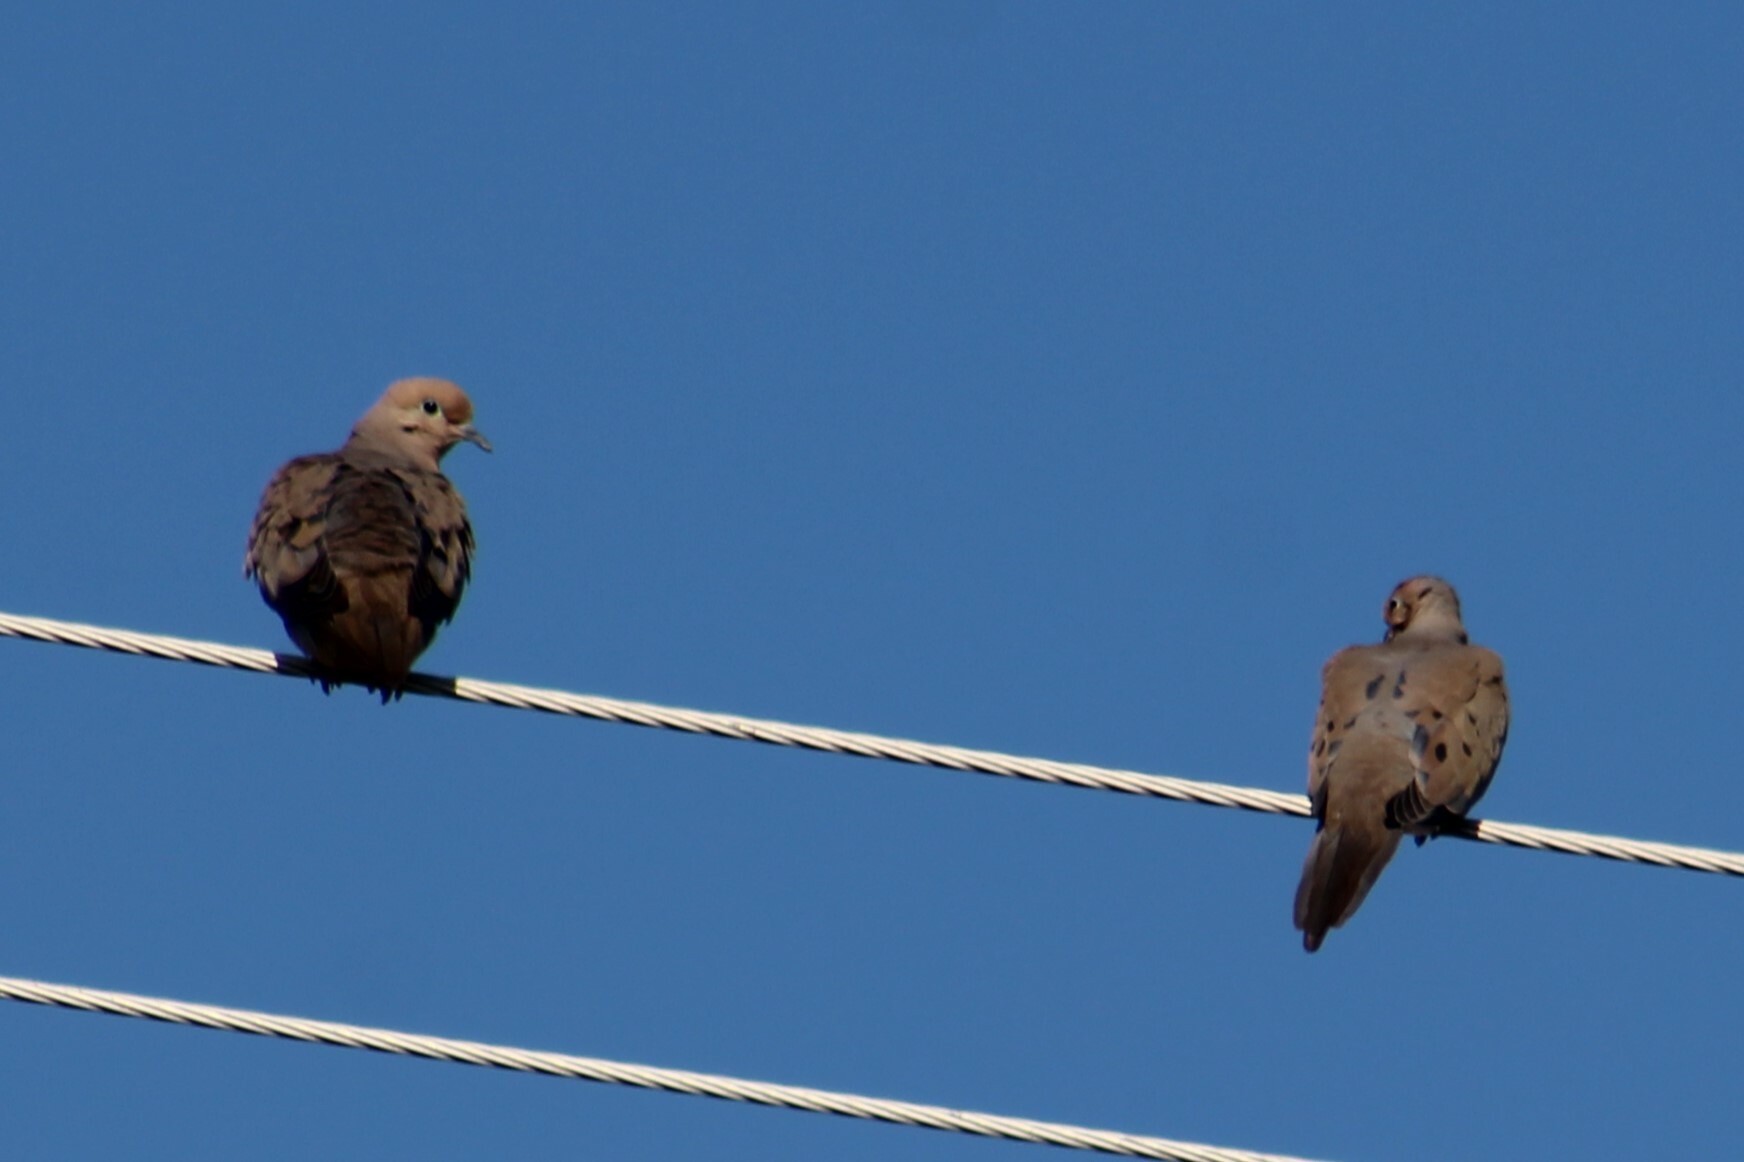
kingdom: Animalia
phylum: Chordata
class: Aves
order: Columbiformes
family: Columbidae
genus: Zenaida
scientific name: Zenaida macroura
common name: Mourning dove
